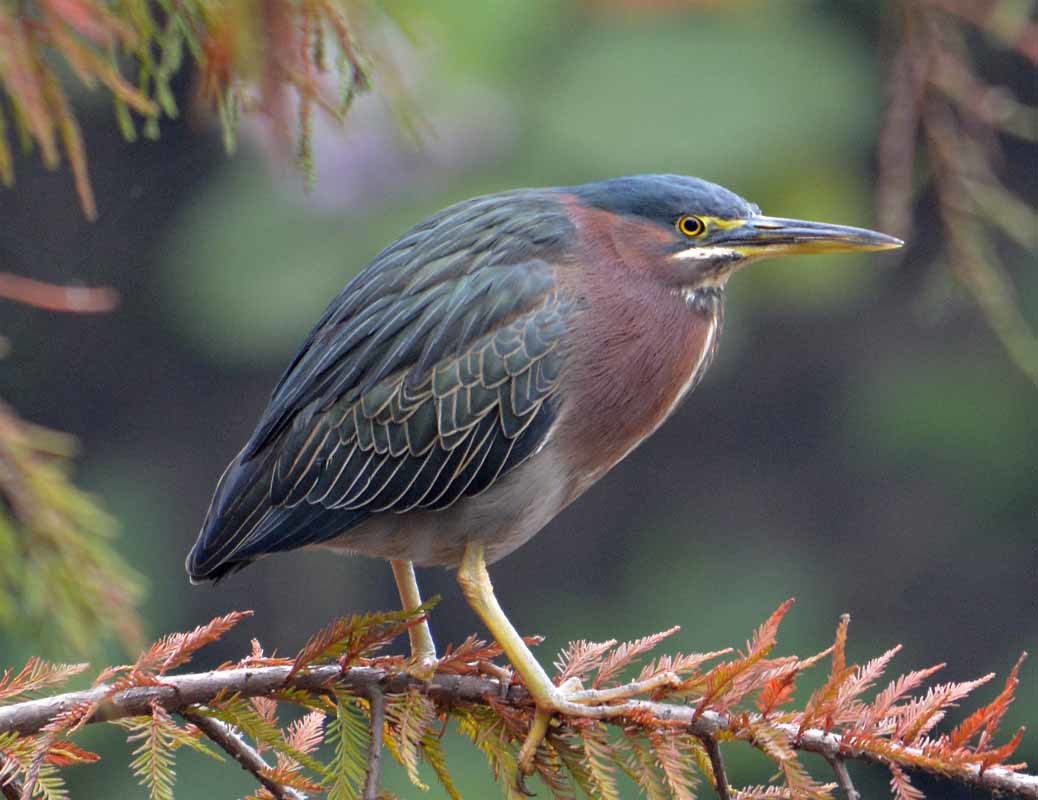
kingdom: Animalia
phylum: Chordata
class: Aves
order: Pelecaniformes
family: Ardeidae
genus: Butorides
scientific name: Butorides virescens
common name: Green heron
